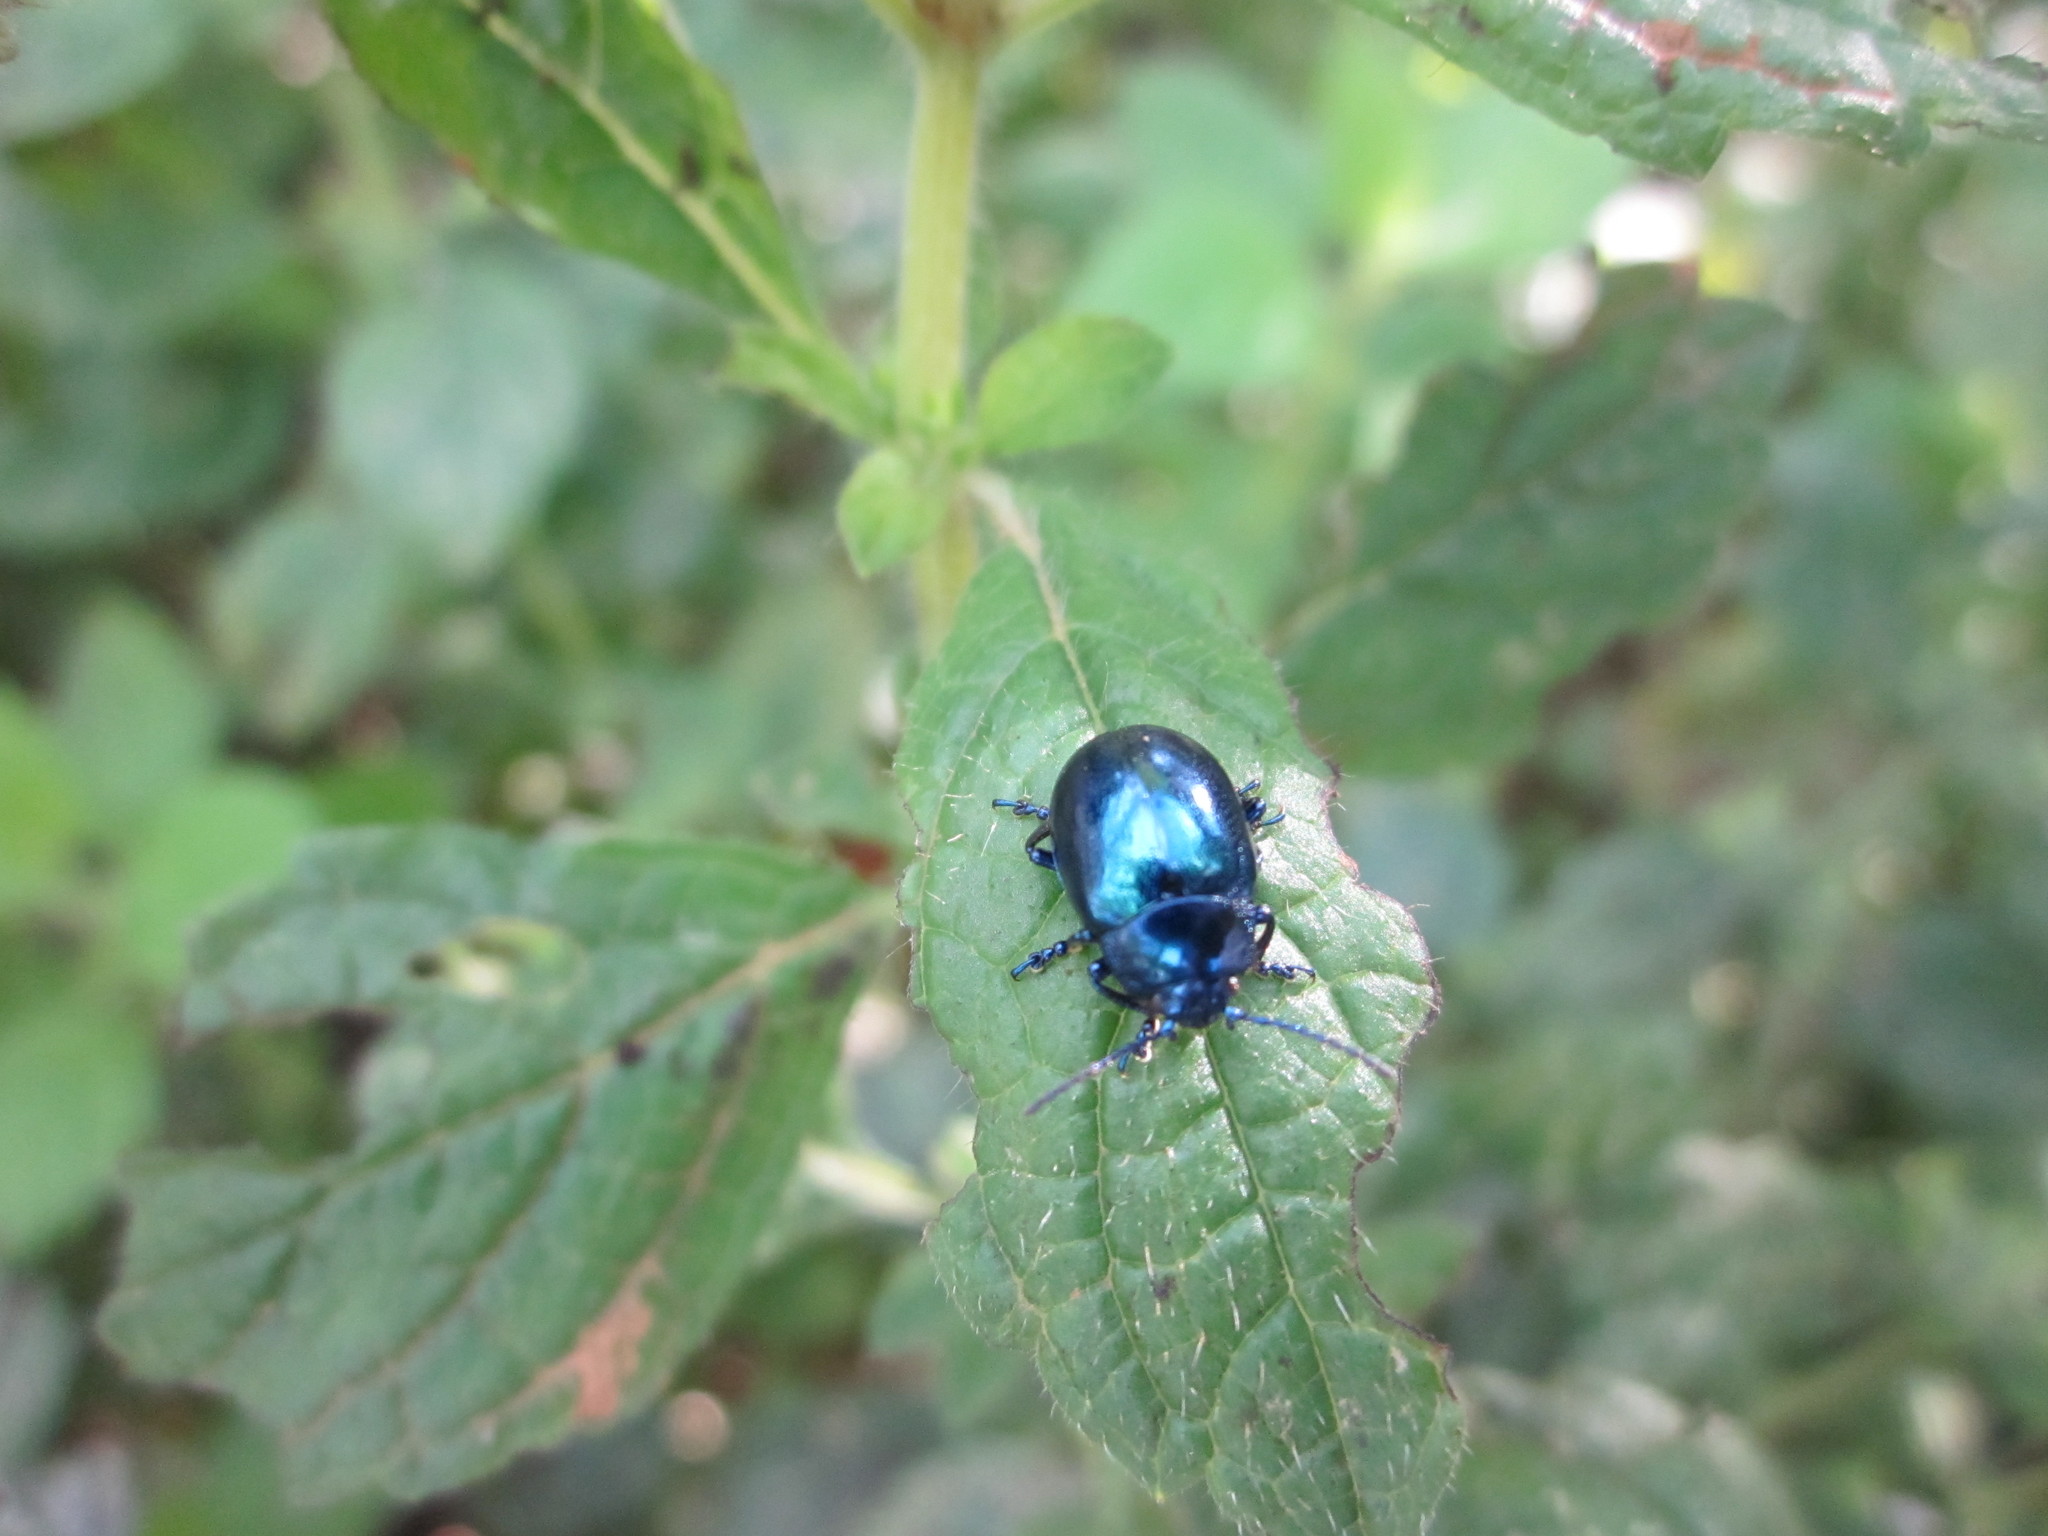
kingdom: Animalia
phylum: Arthropoda
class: Insecta
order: Coleoptera
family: Chrysomelidae
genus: Chrysolina
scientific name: Chrysolina coerulans
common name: Blue mint beetle
